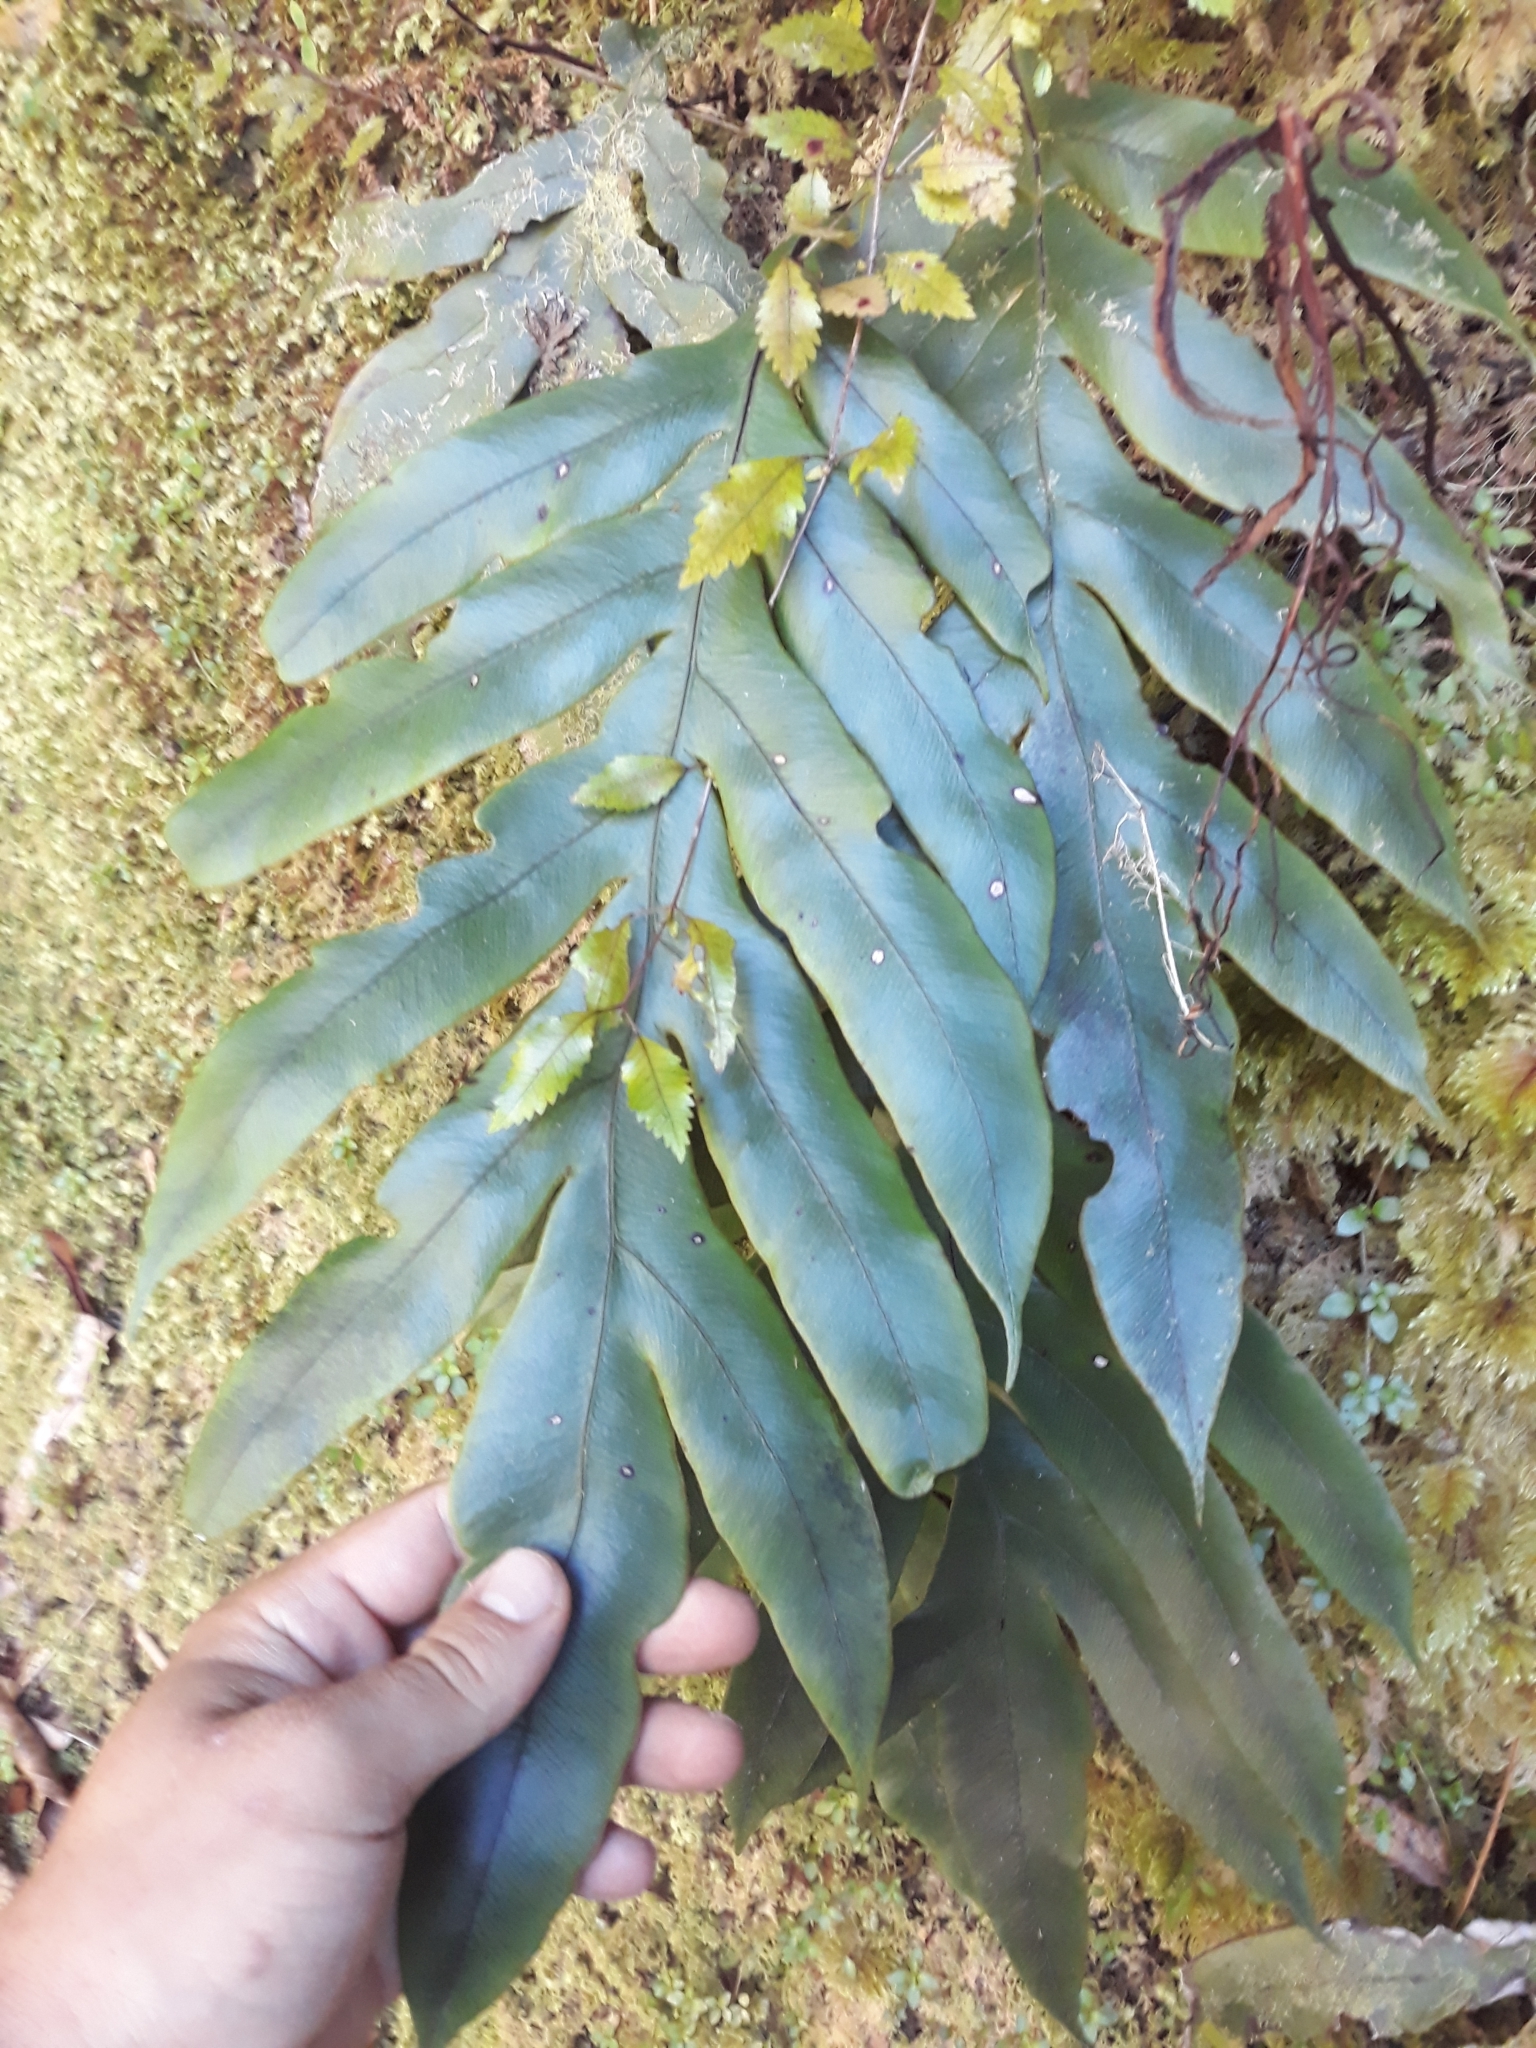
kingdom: Plantae
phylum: Tracheophyta
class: Polypodiopsida
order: Polypodiales
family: Blechnaceae
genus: Austroblechnum
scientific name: Austroblechnum colensoi
